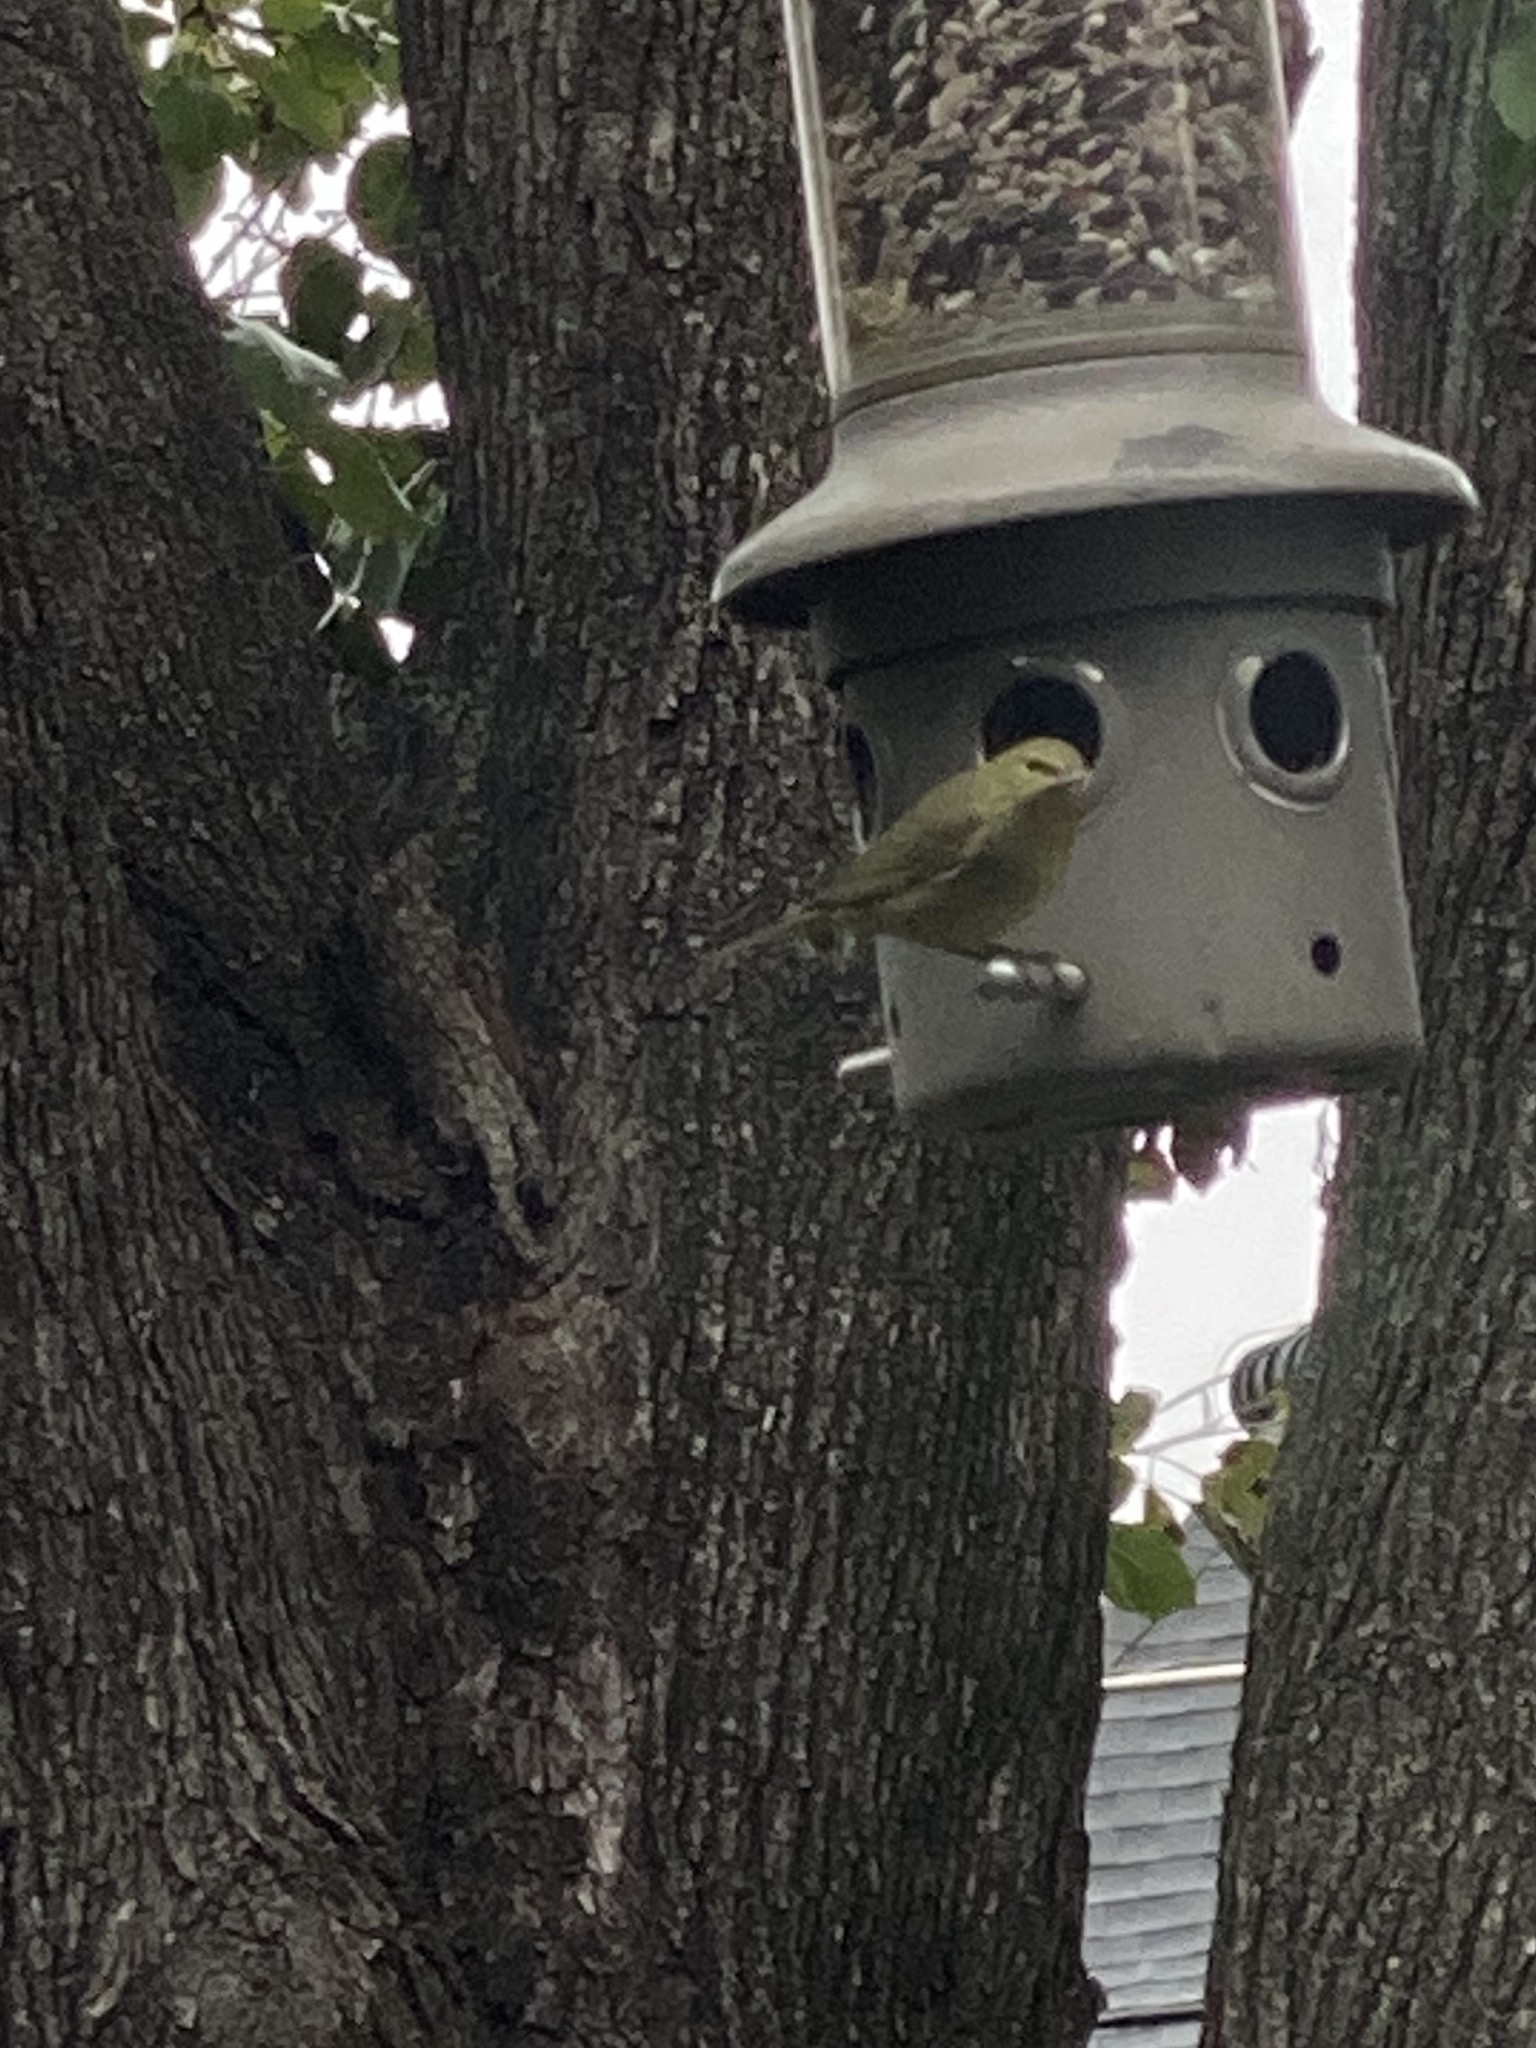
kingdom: Animalia
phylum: Chordata
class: Aves
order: Passeriformes
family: Parulidae
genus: Leiothlypis
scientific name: Leiothlypis celata
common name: Orange-crowned warbler
